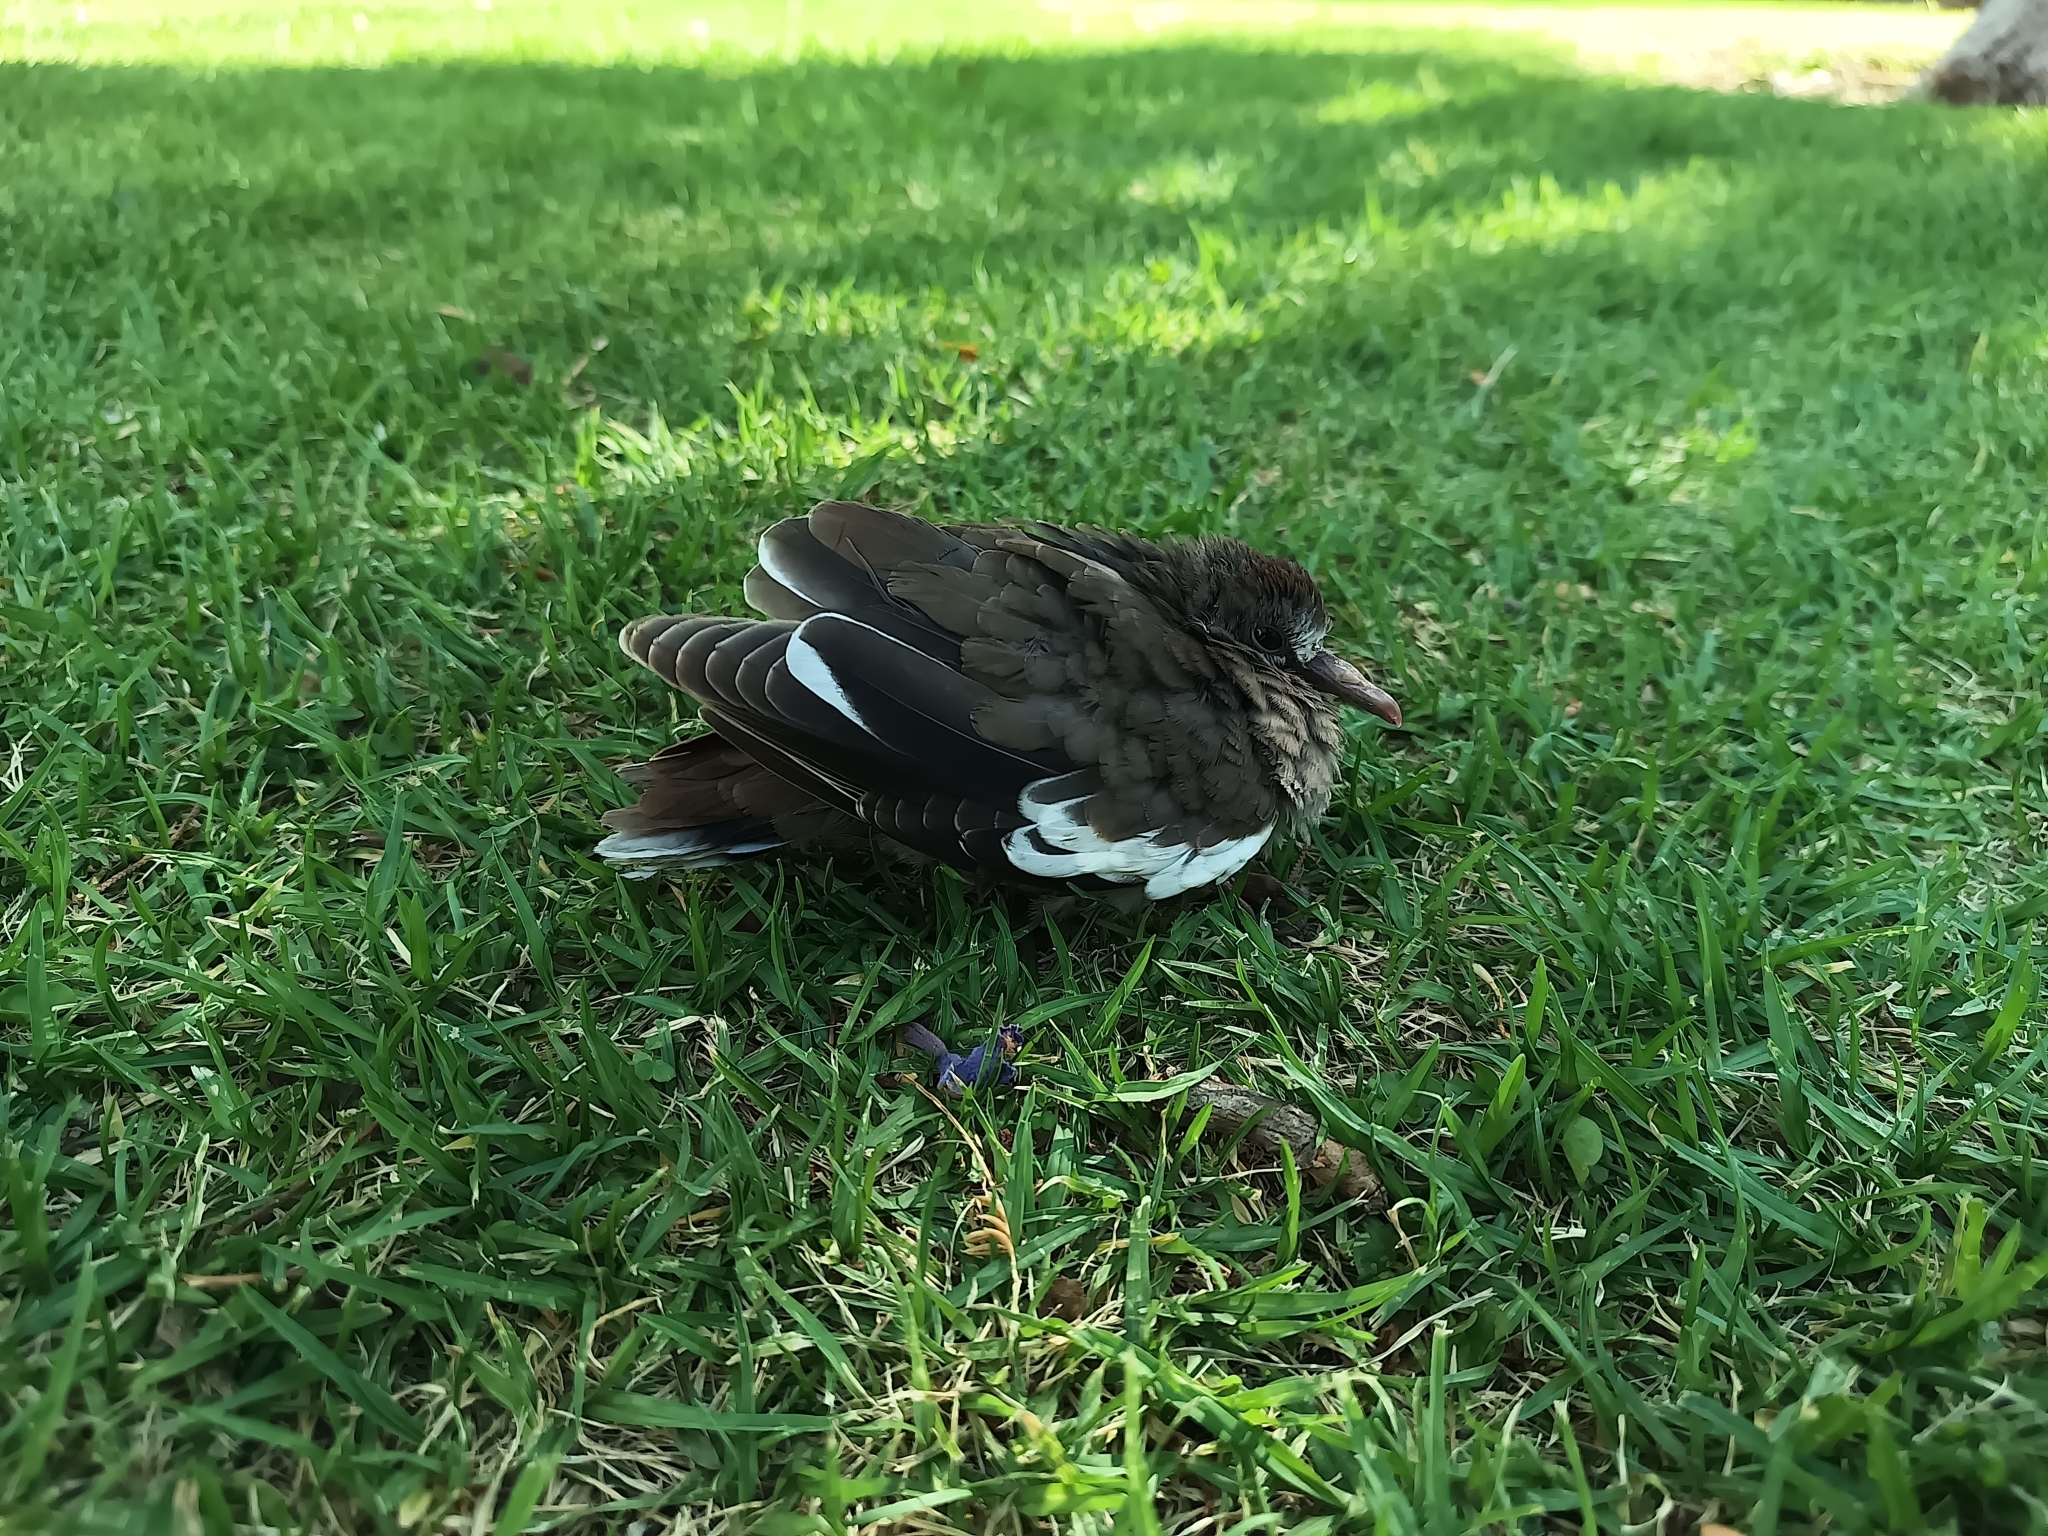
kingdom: Animalia
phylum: Chordata
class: Aves
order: Columbiformes
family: Columbidae
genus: Zenaida
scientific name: Zenaida asiatica
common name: White-winged dove
